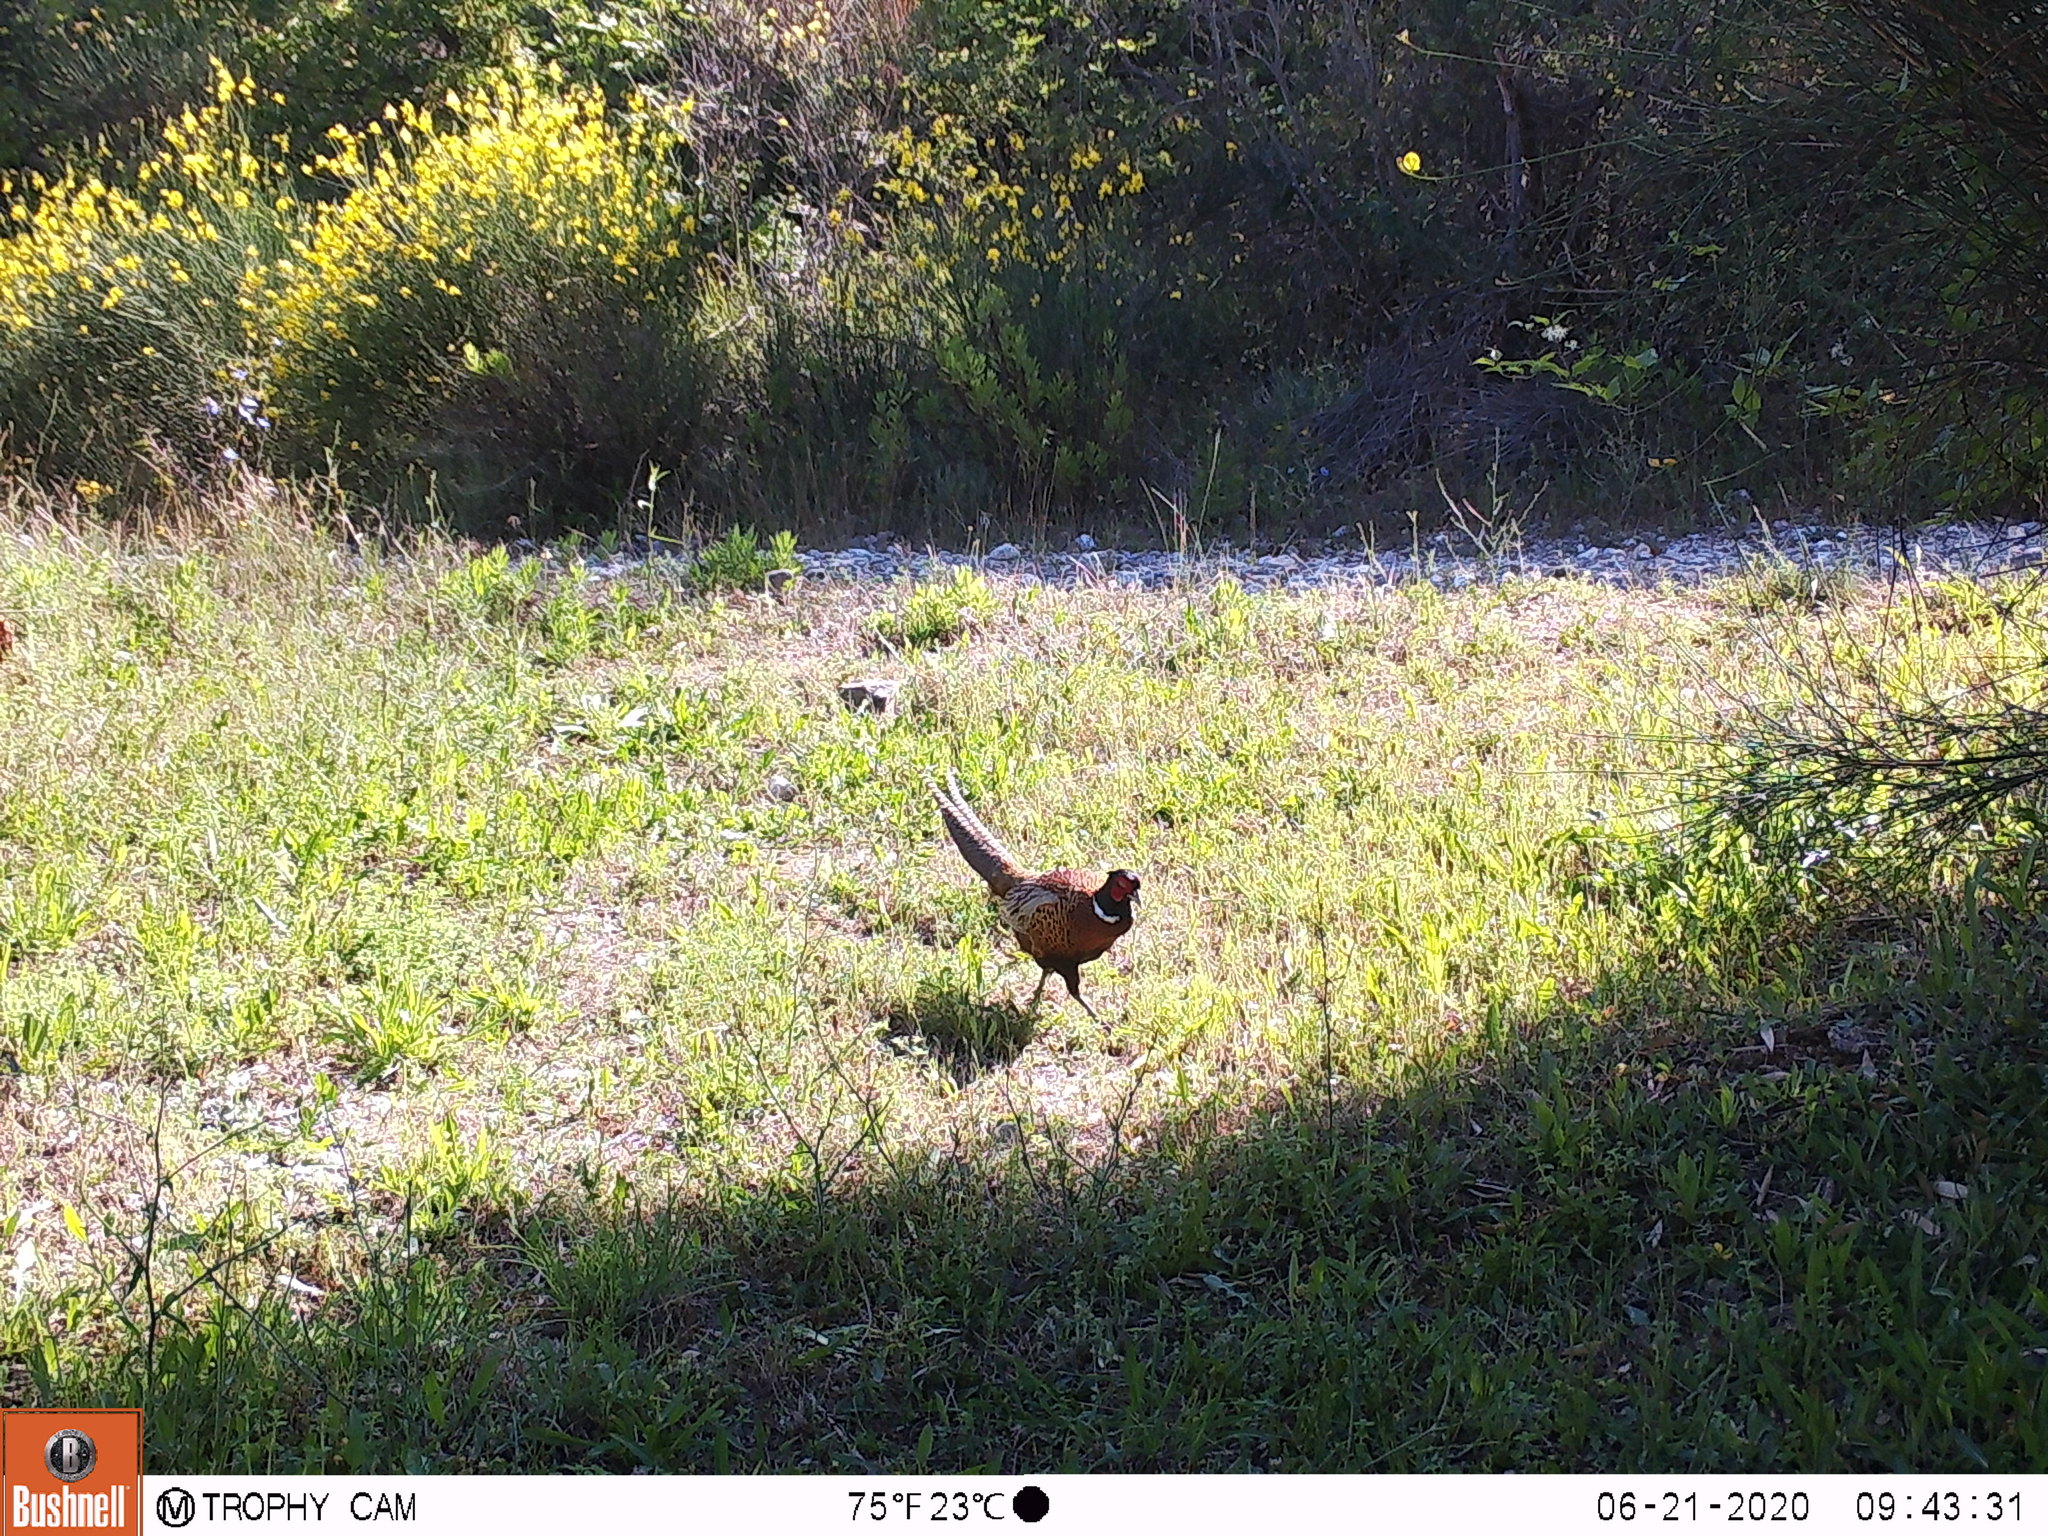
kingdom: Animalia
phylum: Chordata
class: Aves
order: Galliformes
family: Phasianidae
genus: Phasianus
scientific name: Phasianus colchicus
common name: Common pheasant
